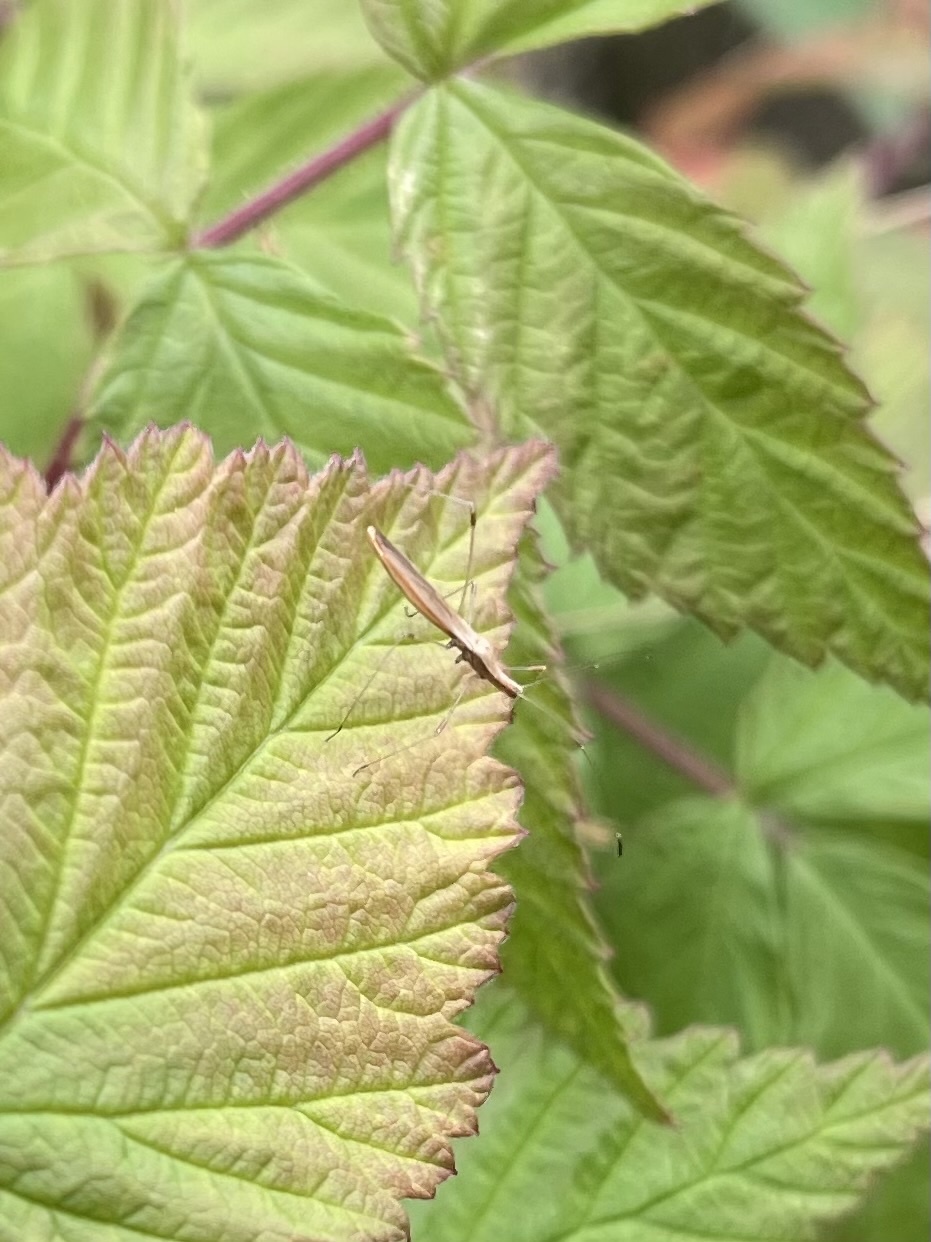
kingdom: Animalia
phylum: Arthropoda
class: Insecta
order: Hemiptera
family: Berytidae
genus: Neoneides
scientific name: Neoneides muticus
